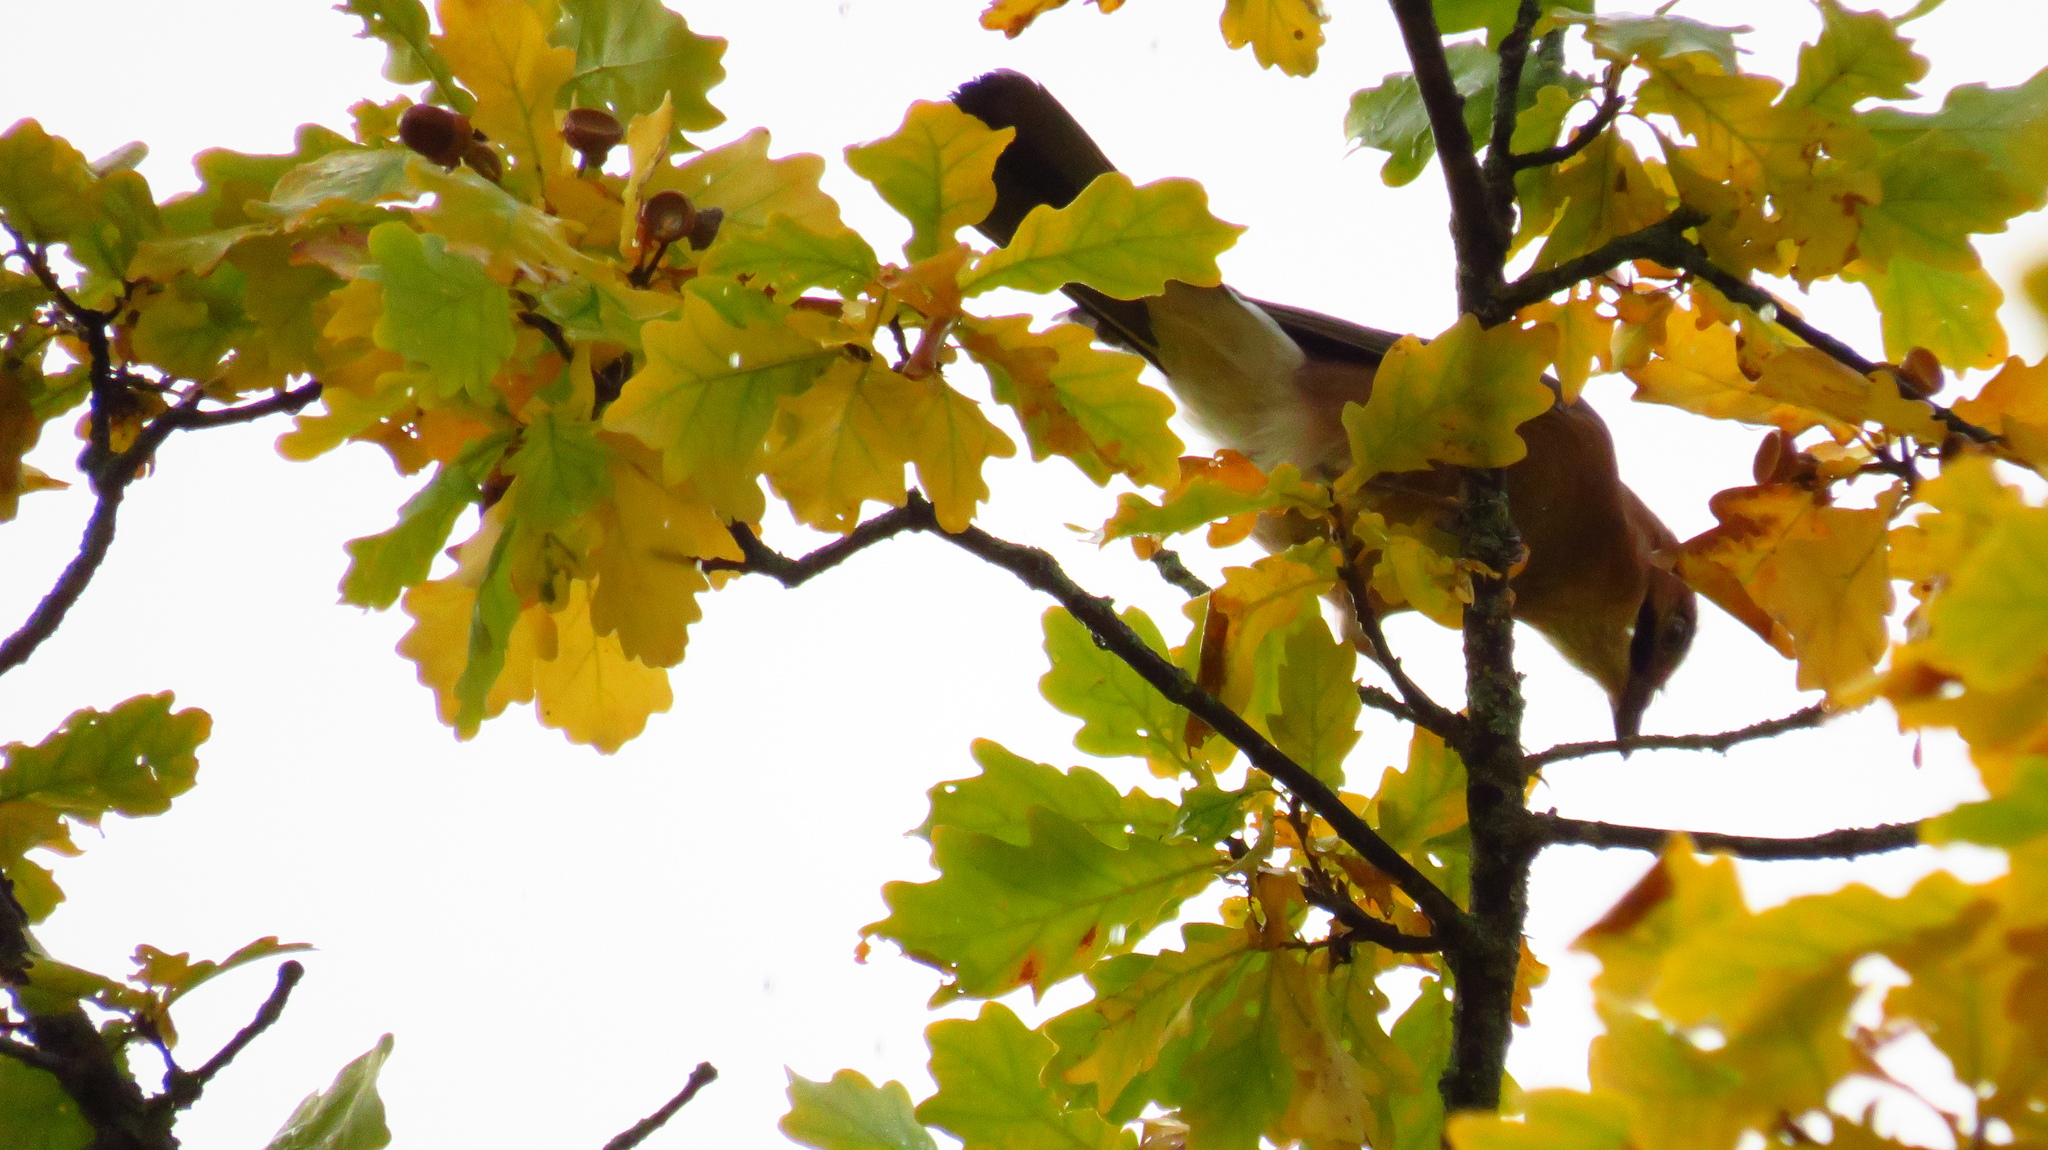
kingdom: Animalia
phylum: Chordata
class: Aves
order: Passeriformes
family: Corvidae
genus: Garrulus
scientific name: Garrulus glandarius
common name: Eurasian jay
